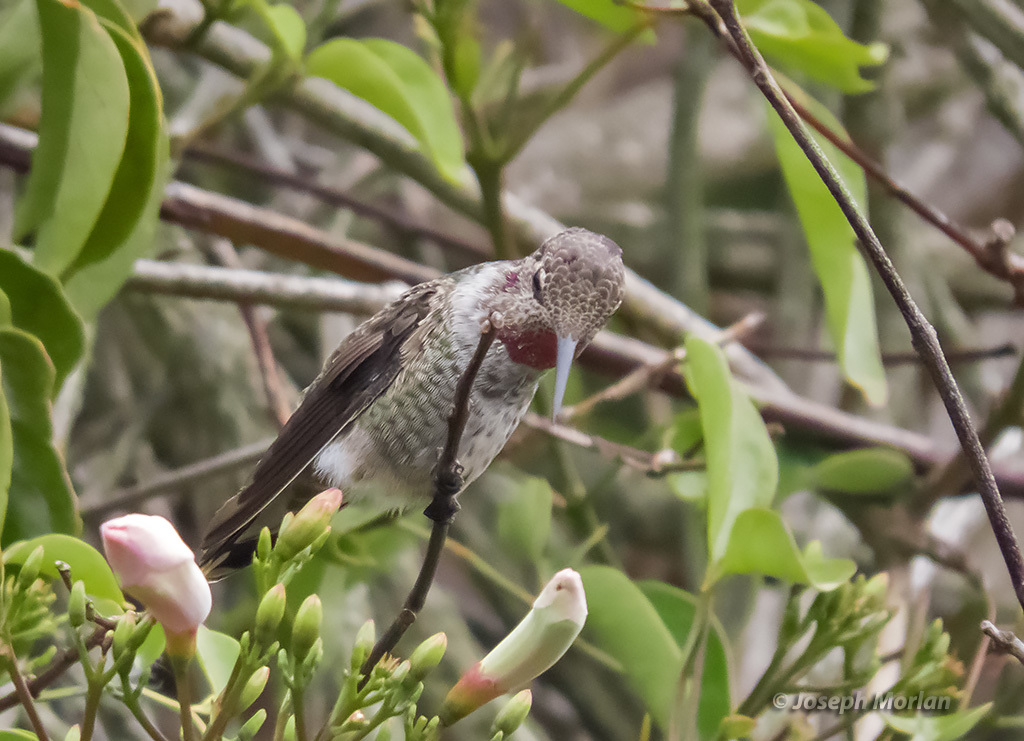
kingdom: Animalia
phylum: Chordata
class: Aves
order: Apodiformes
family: Trochilidae
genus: Calypte
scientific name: Calypte anna
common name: Anna's hummingbird
